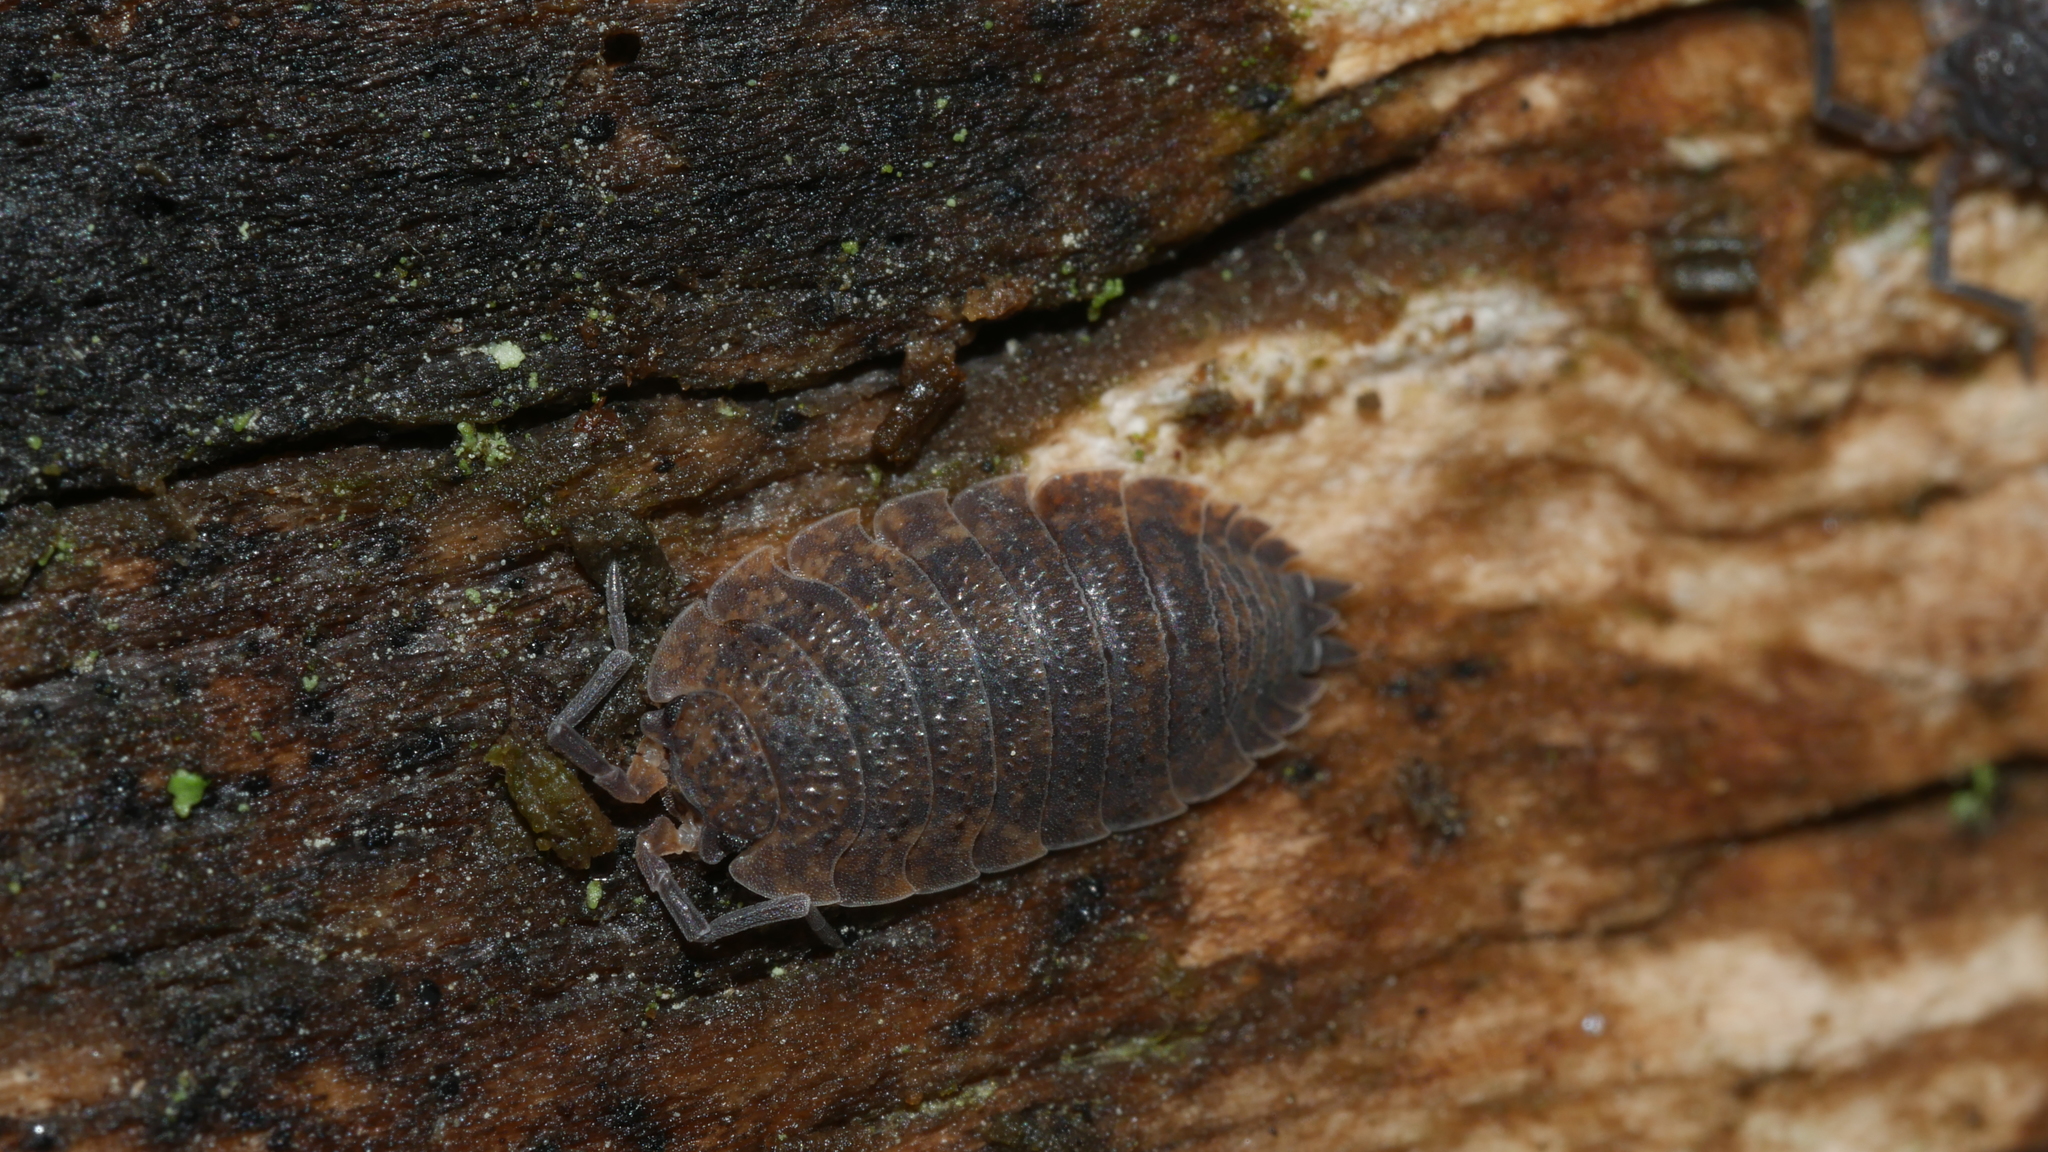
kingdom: Animalia
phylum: Arthropoda
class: Malacostraca
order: Isopoda
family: Porcellionidae
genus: Porcellio
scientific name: Porcellio scaber
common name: Common rough woodlouse
